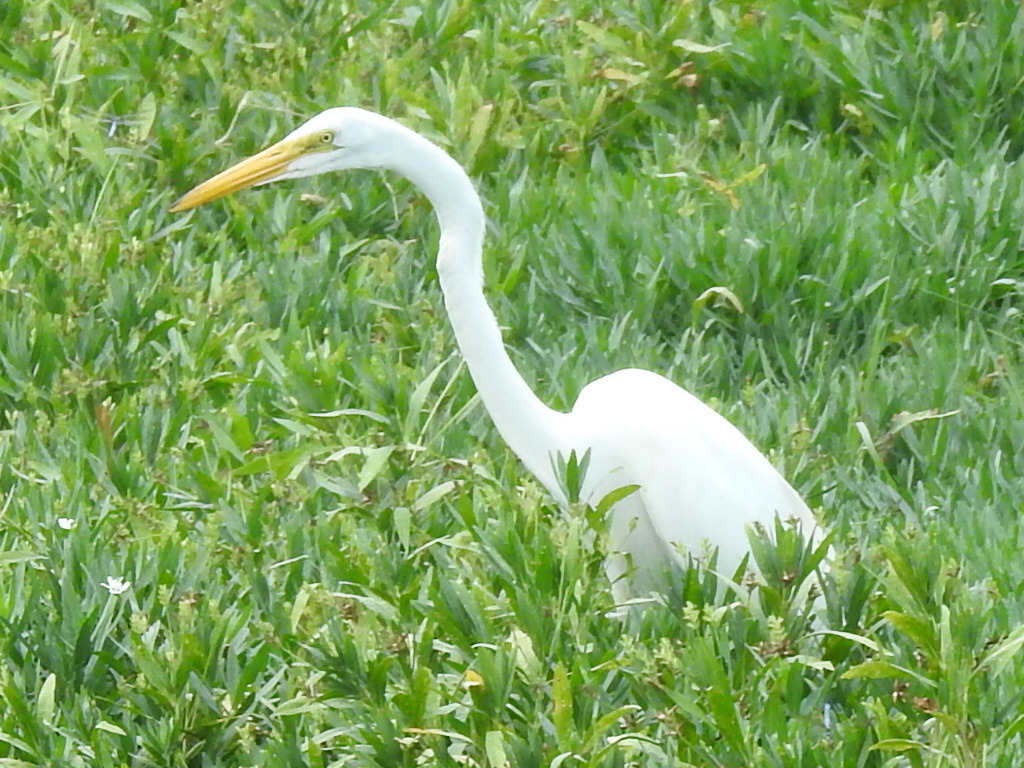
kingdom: Animalia
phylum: Chordata
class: Aves
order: Pelecaniformes
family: Ardeidae
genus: Ardea
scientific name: Ardea alba
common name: Great egret
